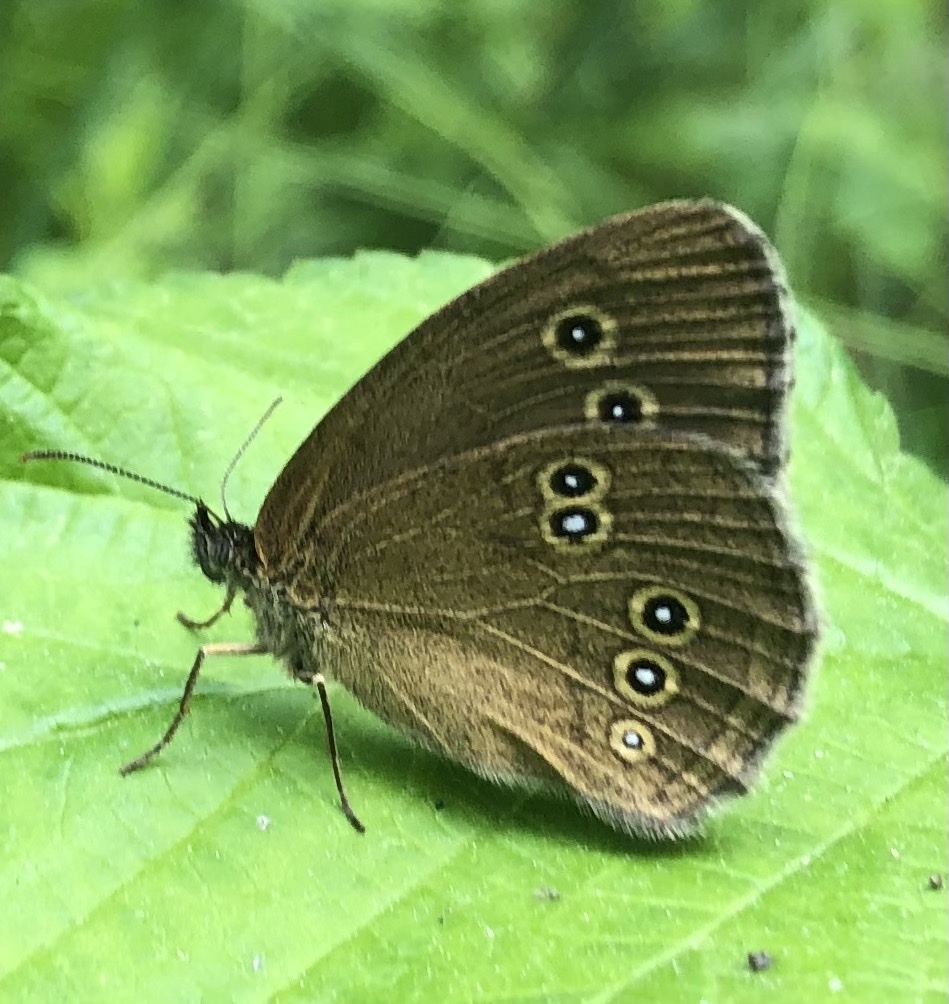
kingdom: Animalia
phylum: Arthropoda
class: Insecta
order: Lepidoptera
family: Nymphalidae
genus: Aphantopus
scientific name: Aphantopus hyperantus
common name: Ringlet
